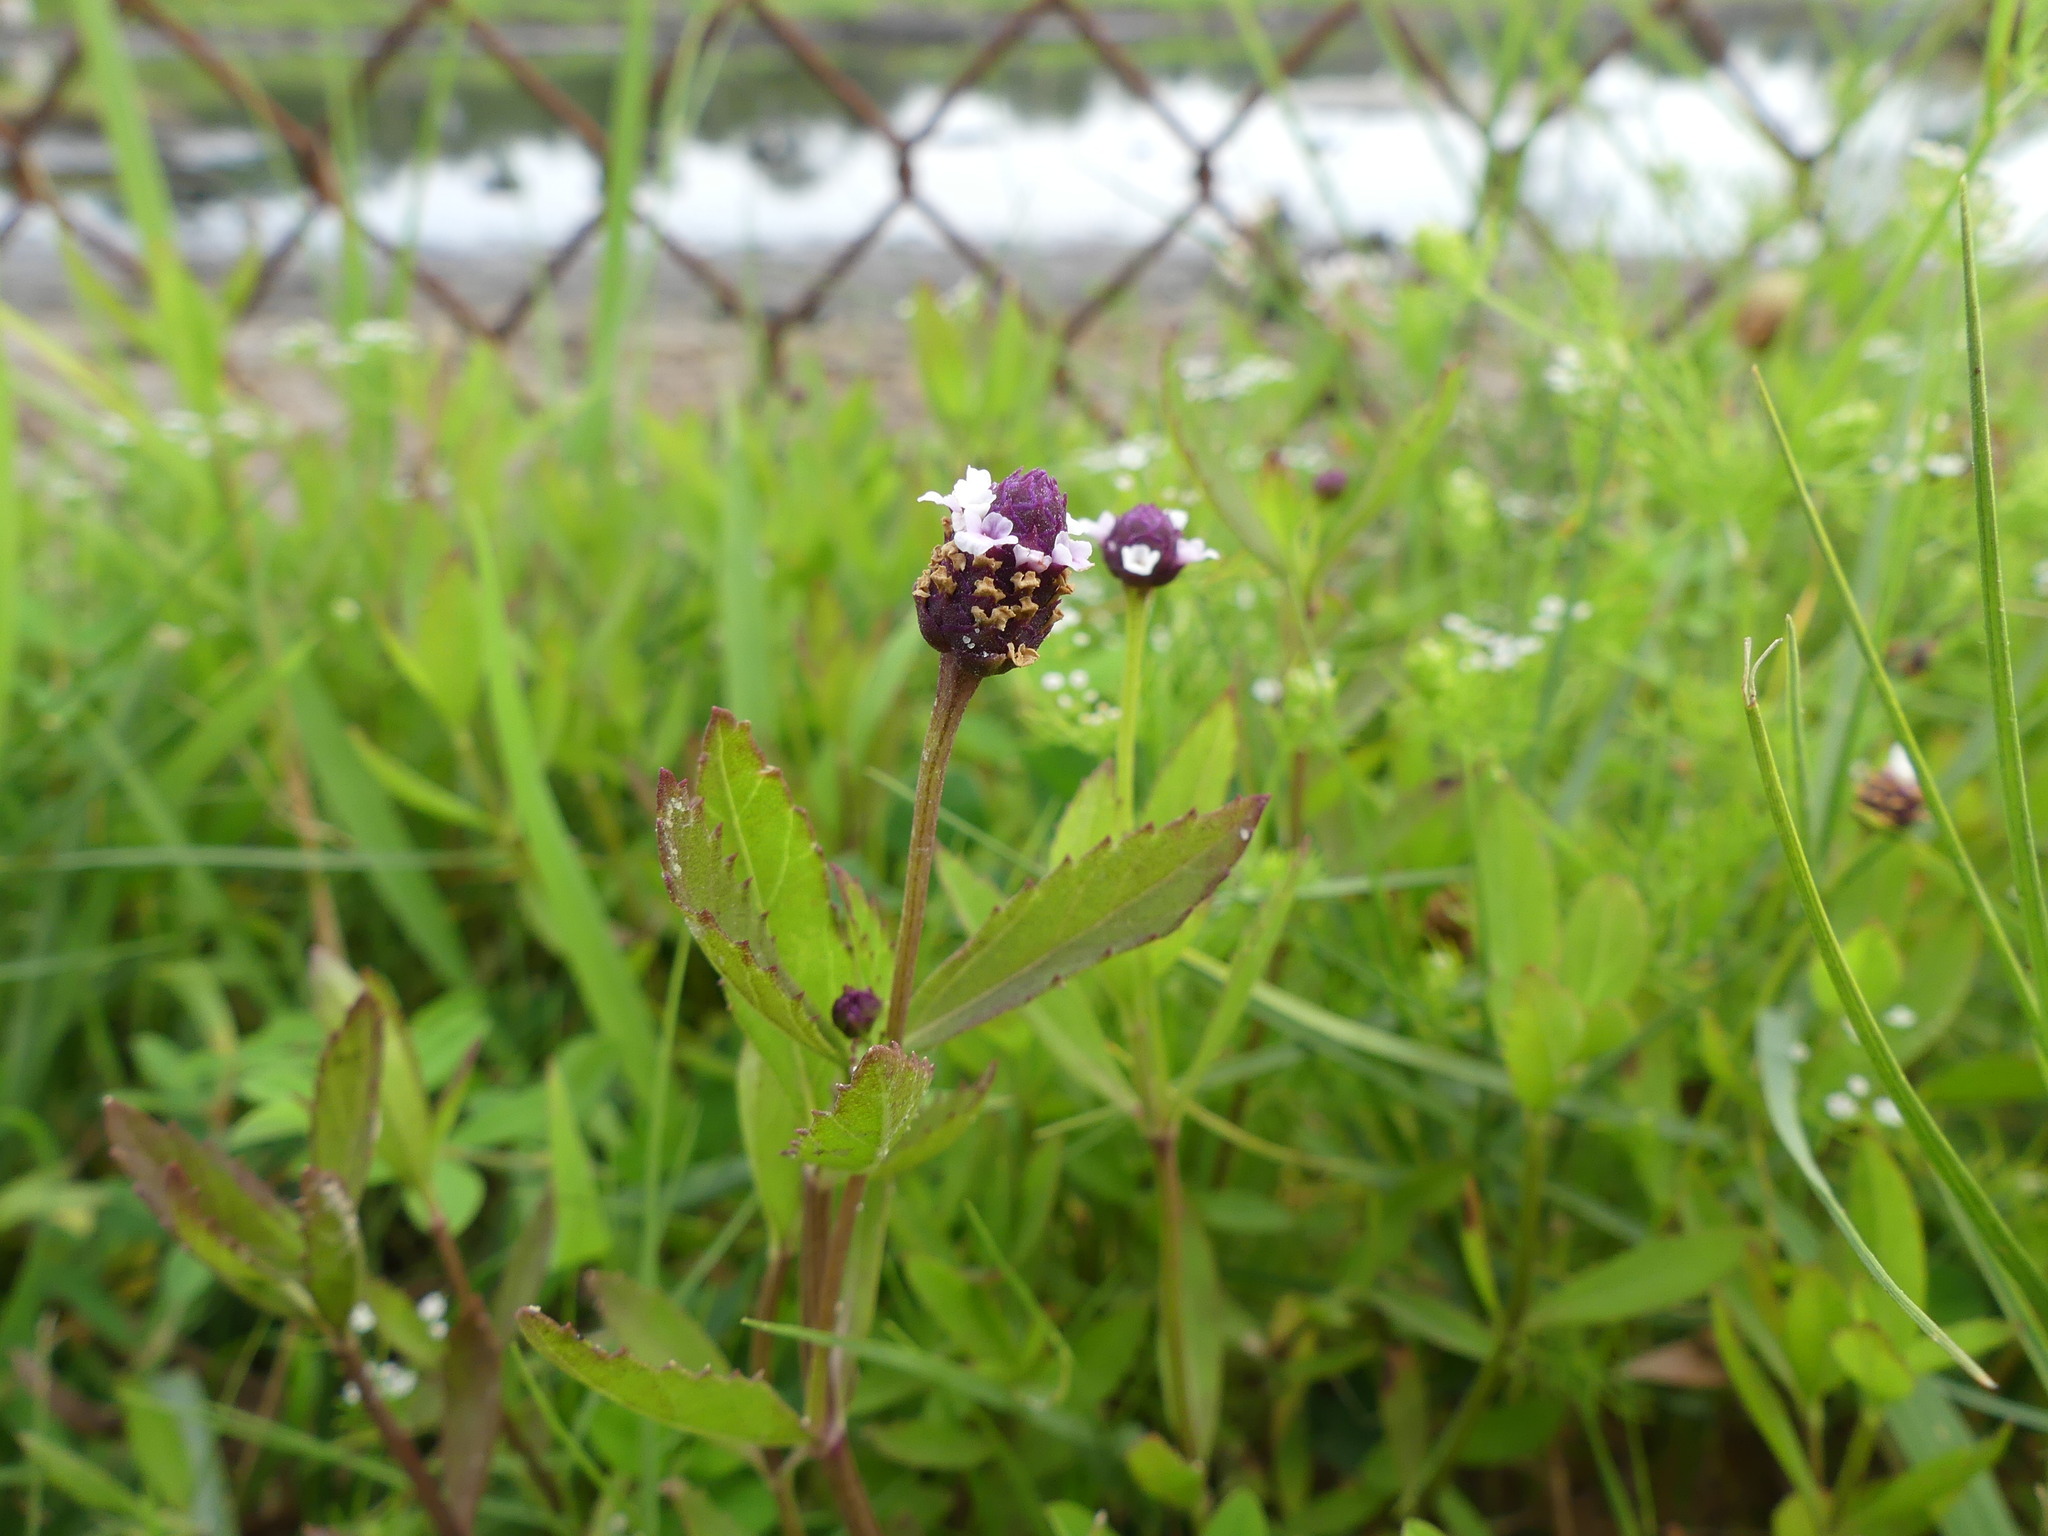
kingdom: Plantae
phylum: Tracheophyta
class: Magnoliopsida
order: Lamiales
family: Verbenaceae
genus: Phyla
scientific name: Phyla lanceolata
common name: Northern fogfruit
